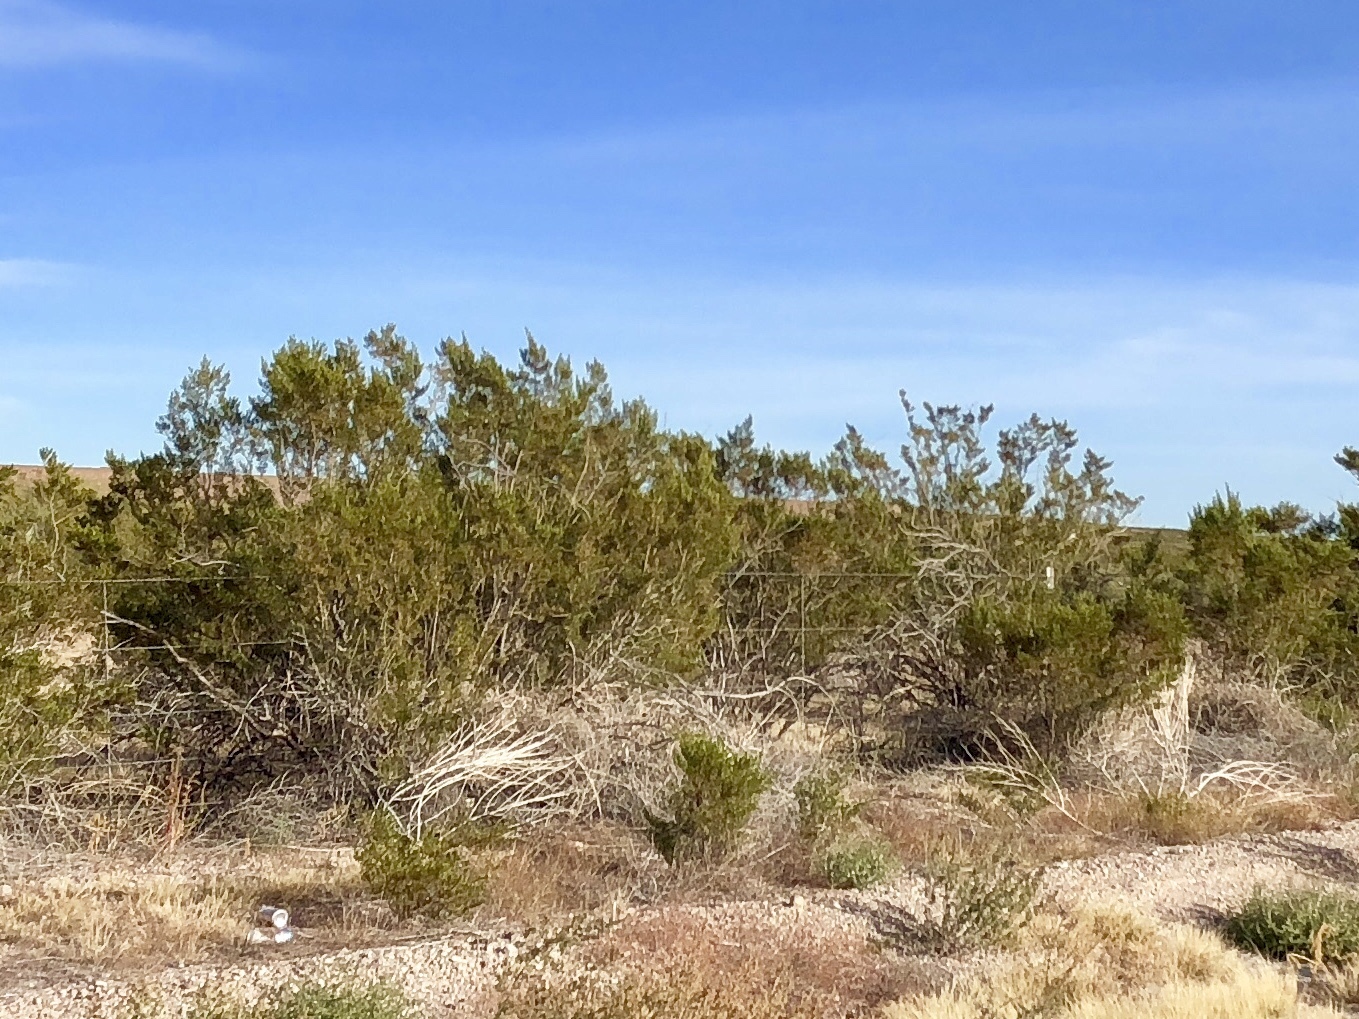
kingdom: Plantae
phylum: Tracheophyta
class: Magnoliopsida
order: Zygophyllales
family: Zygophyllaceae
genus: Larrea
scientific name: Larrea tridentata
